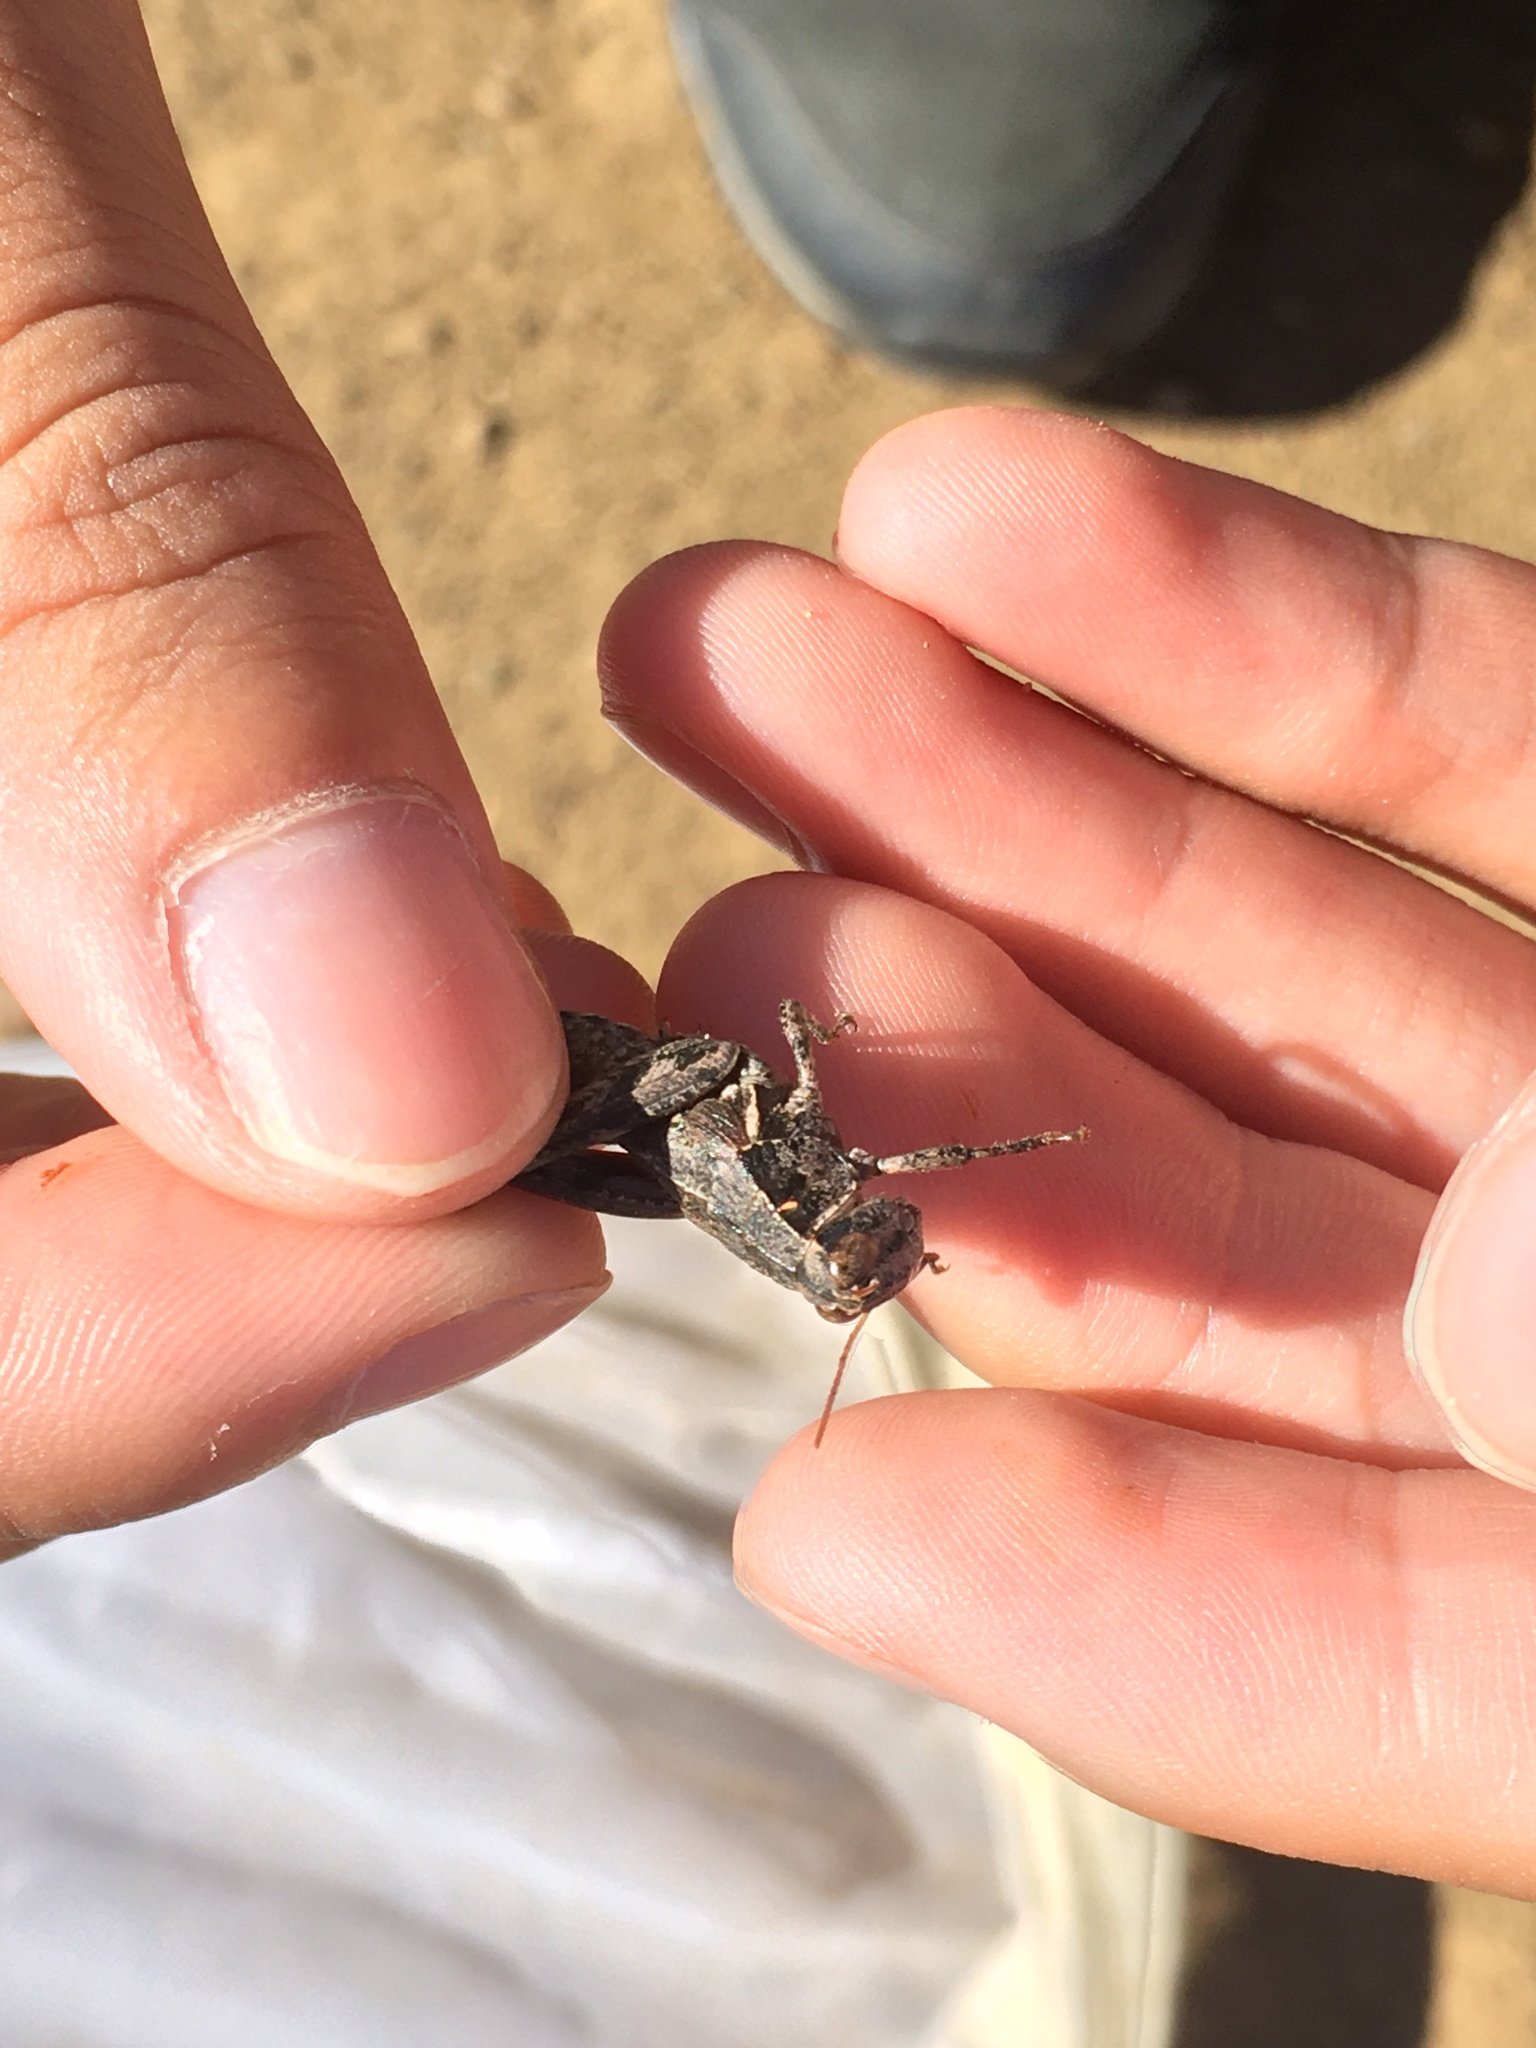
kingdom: Animalia
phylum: Arthropoda
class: Insecta
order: Orthoptera
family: Acrididae
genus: Oedaleonotus
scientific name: Oedaleonotus phryneicus
